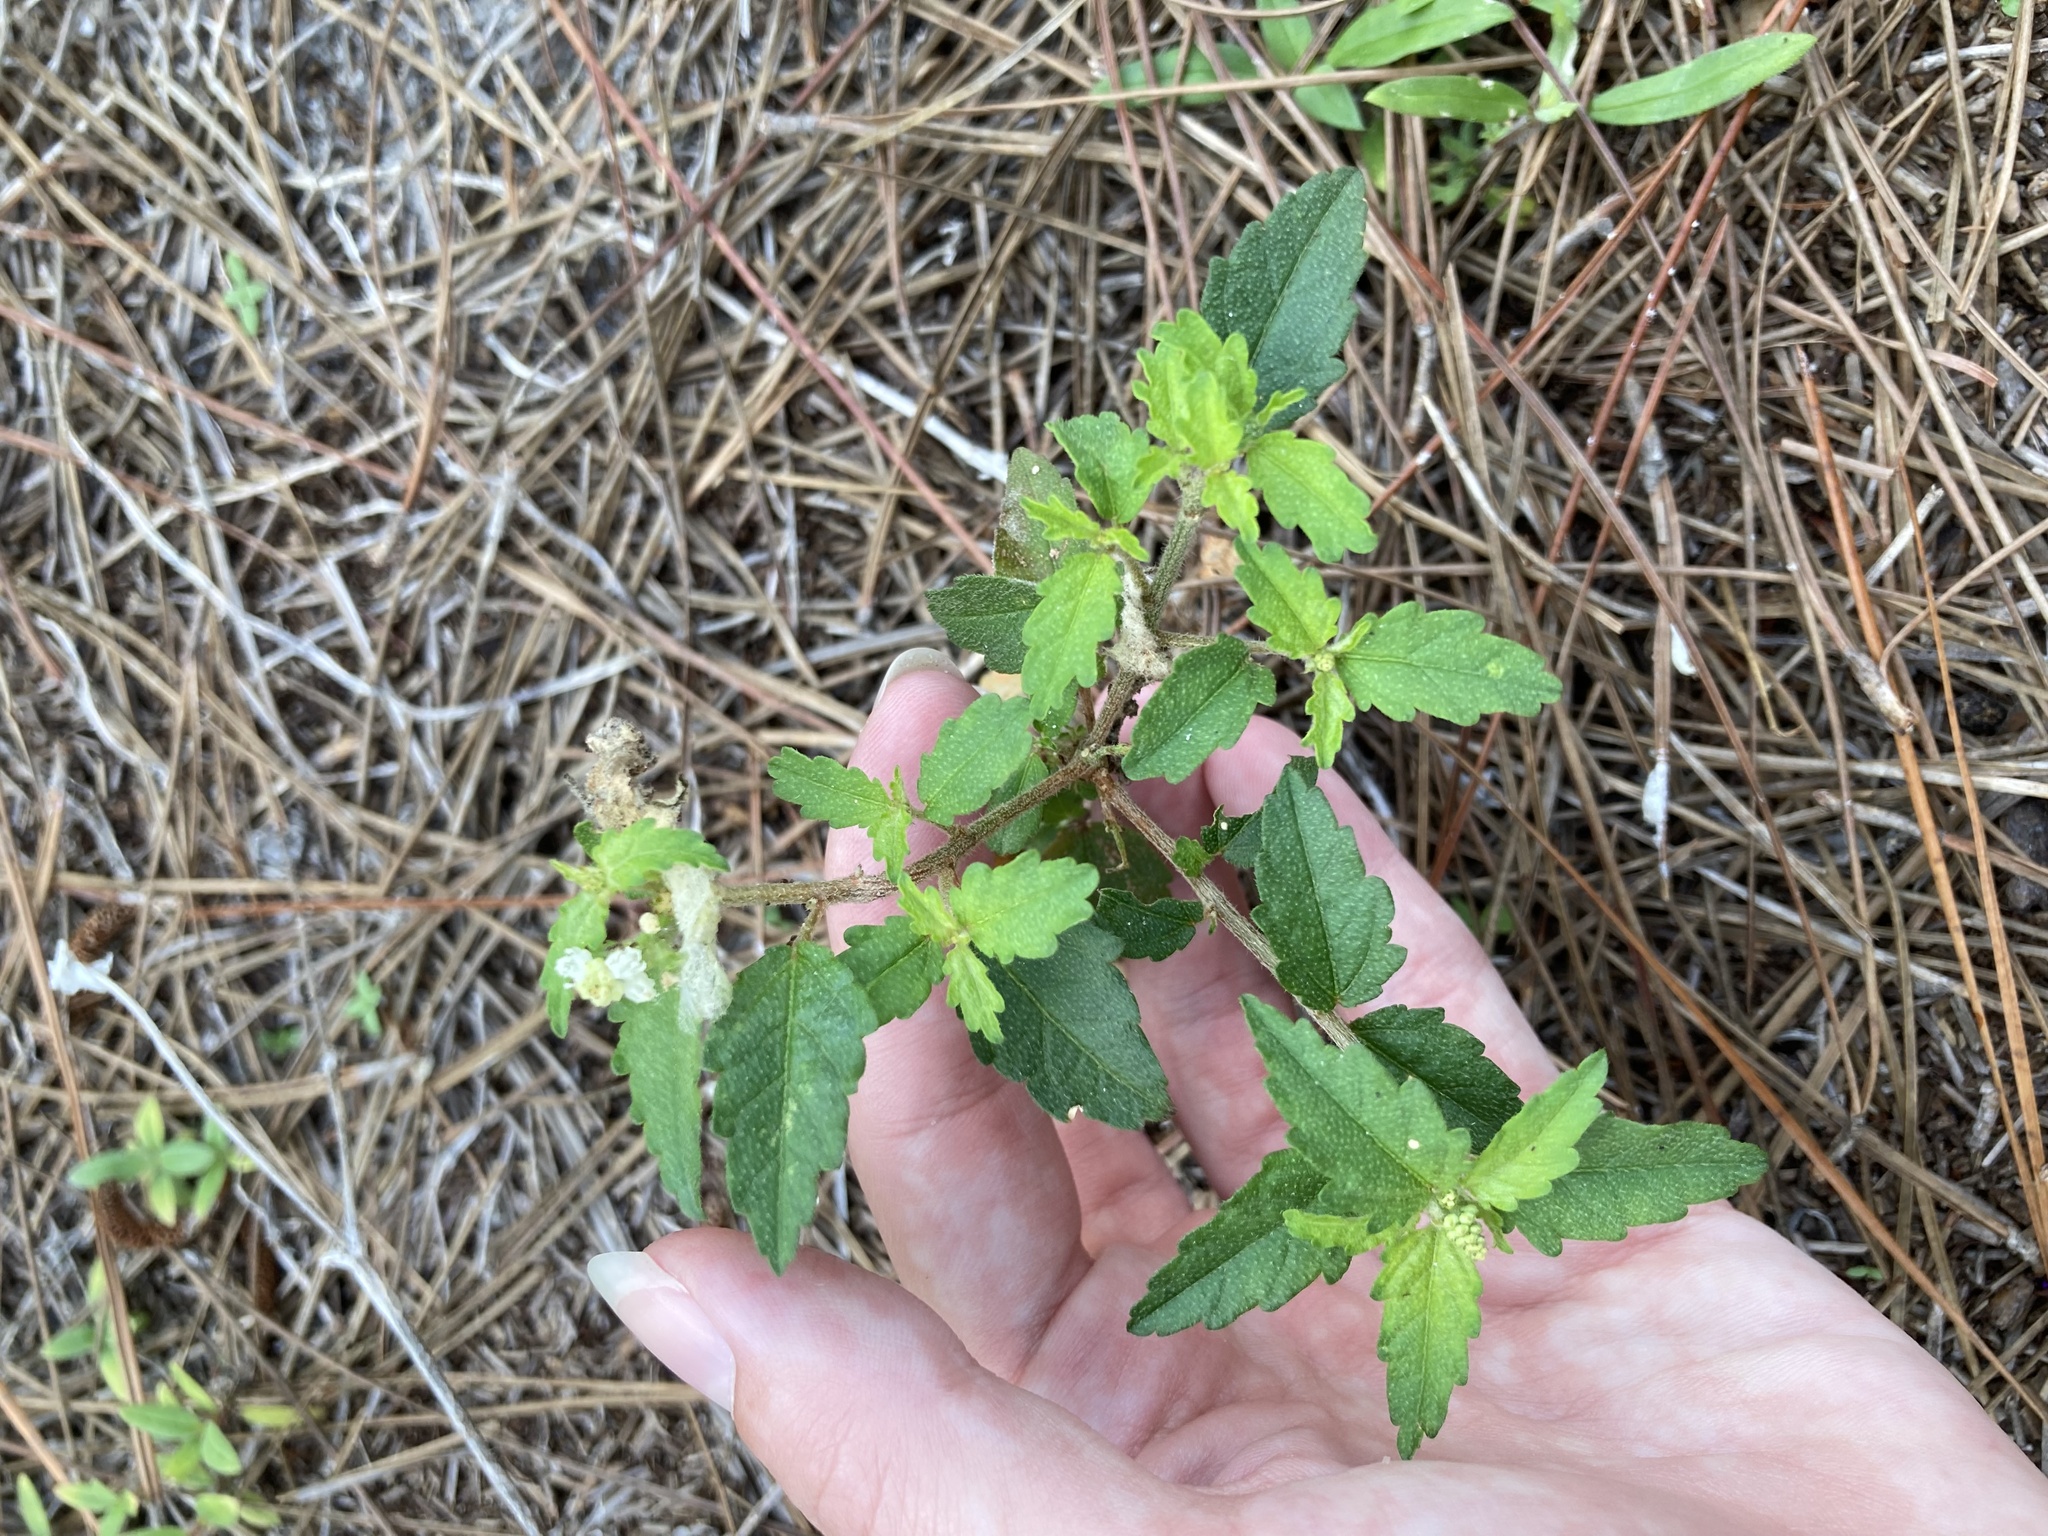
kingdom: Plantae
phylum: Tracheophyta
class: Magnoliopsida
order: Malpighiales
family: Euphorbiaceae
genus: Croton
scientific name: Croton glandulosus
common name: Tropic croton
